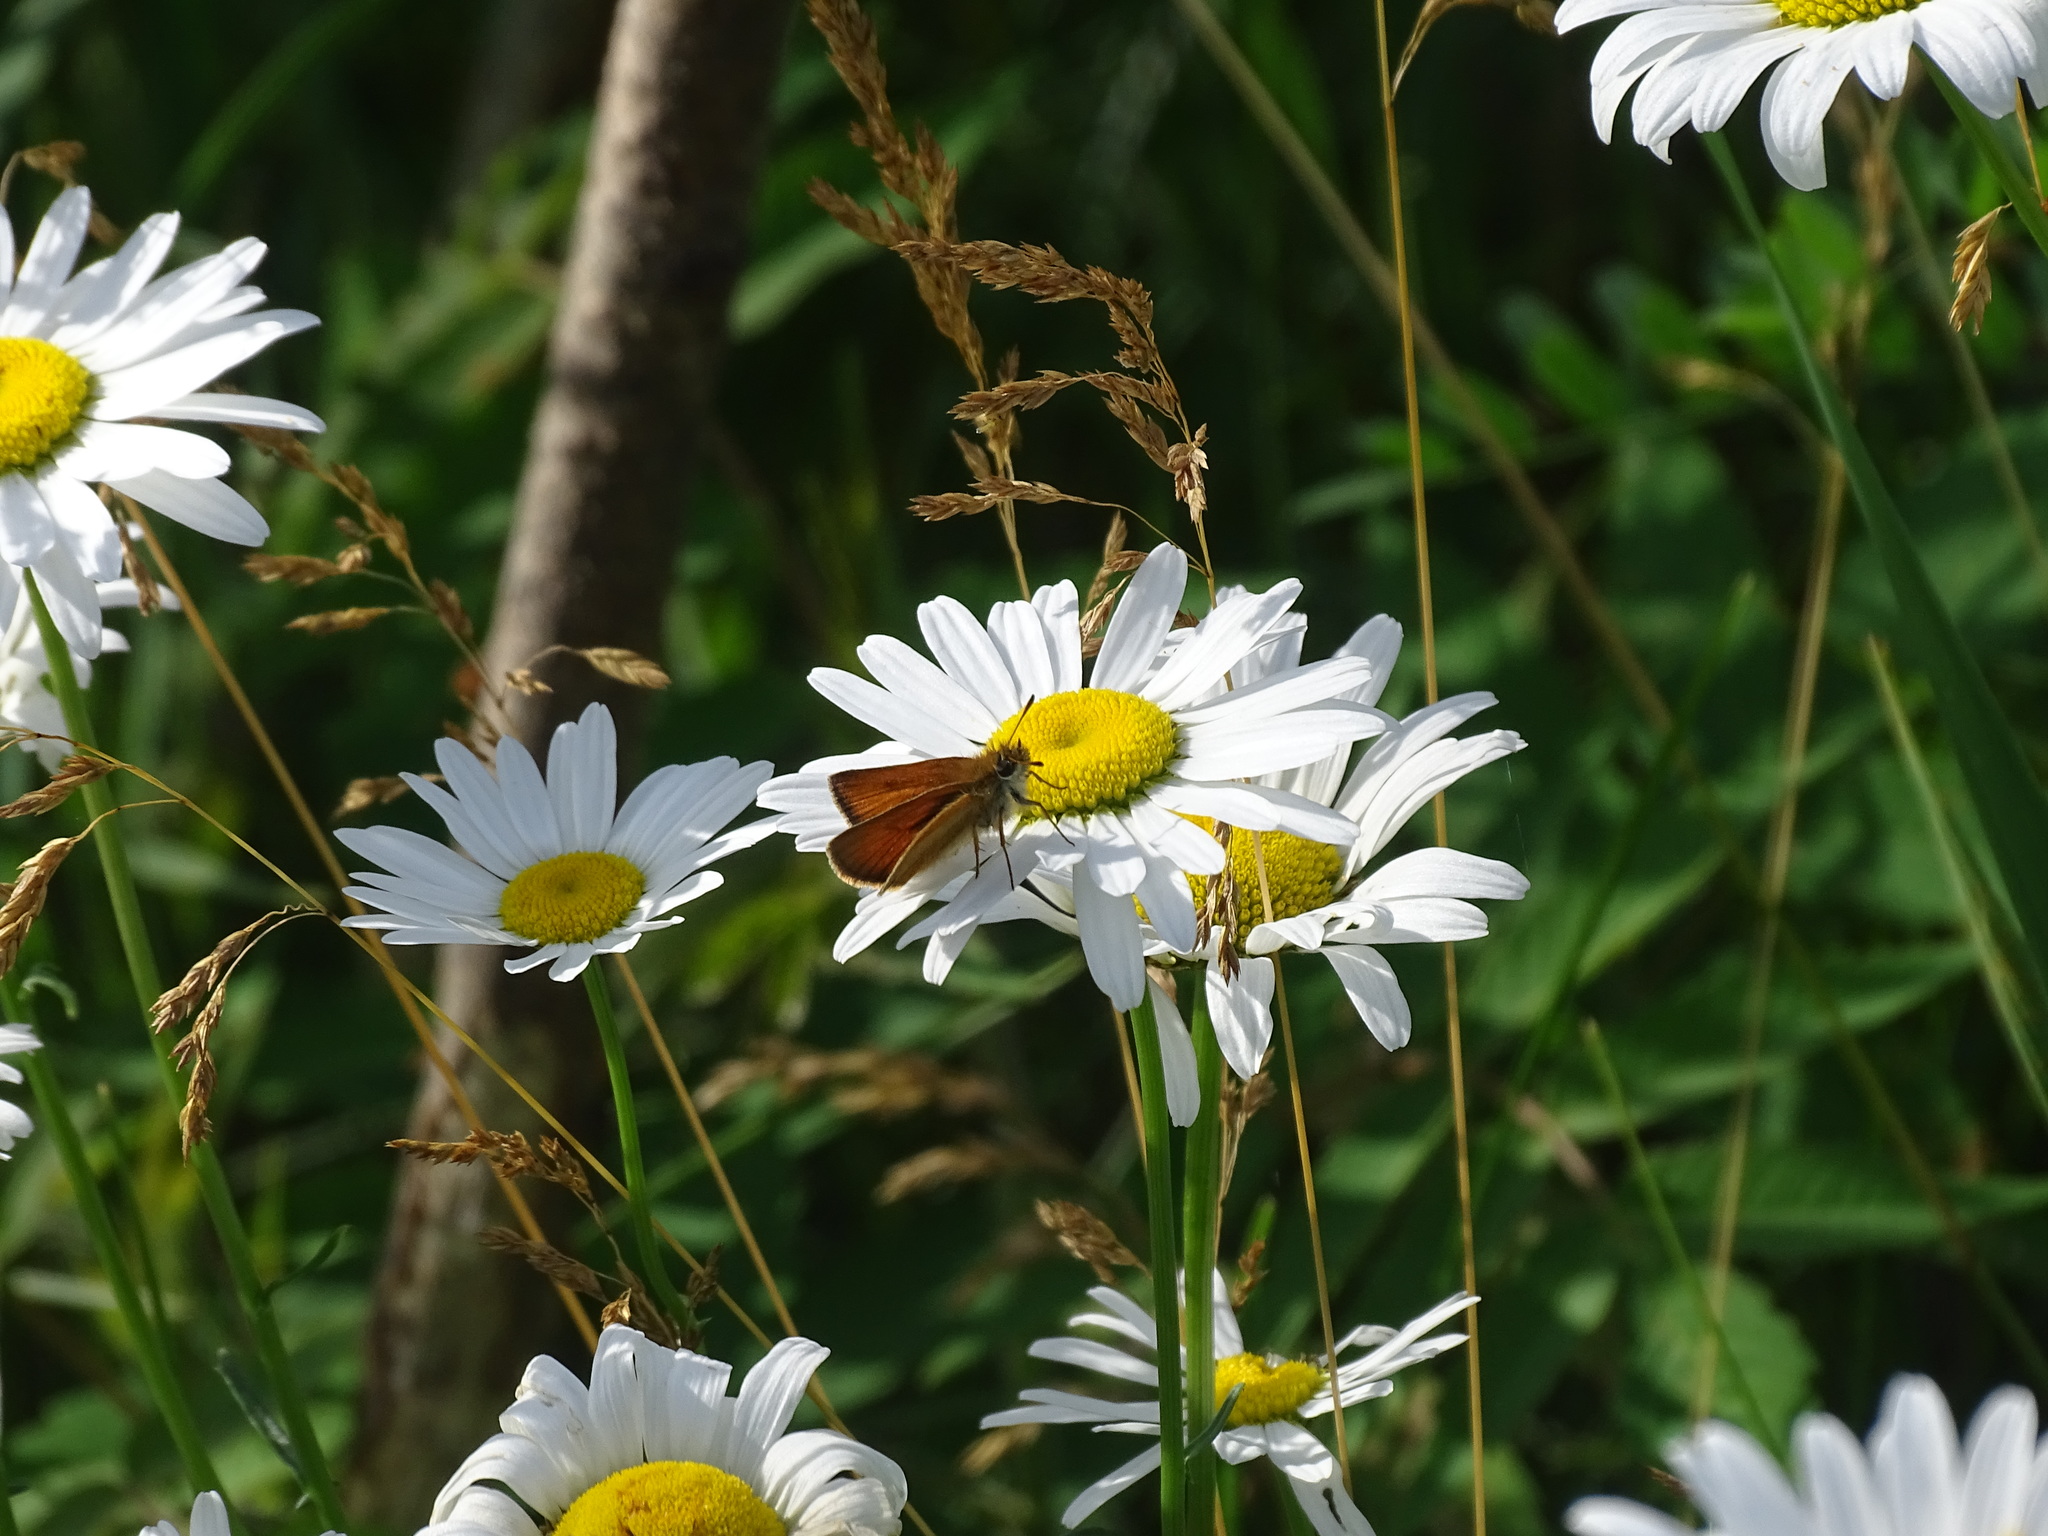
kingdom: Animalia
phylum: Arthropoda
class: Insecta
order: Lepidoptera
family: Hesperiidae
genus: Thymelicus
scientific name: Thymelicus lineola
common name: Essex skipper
